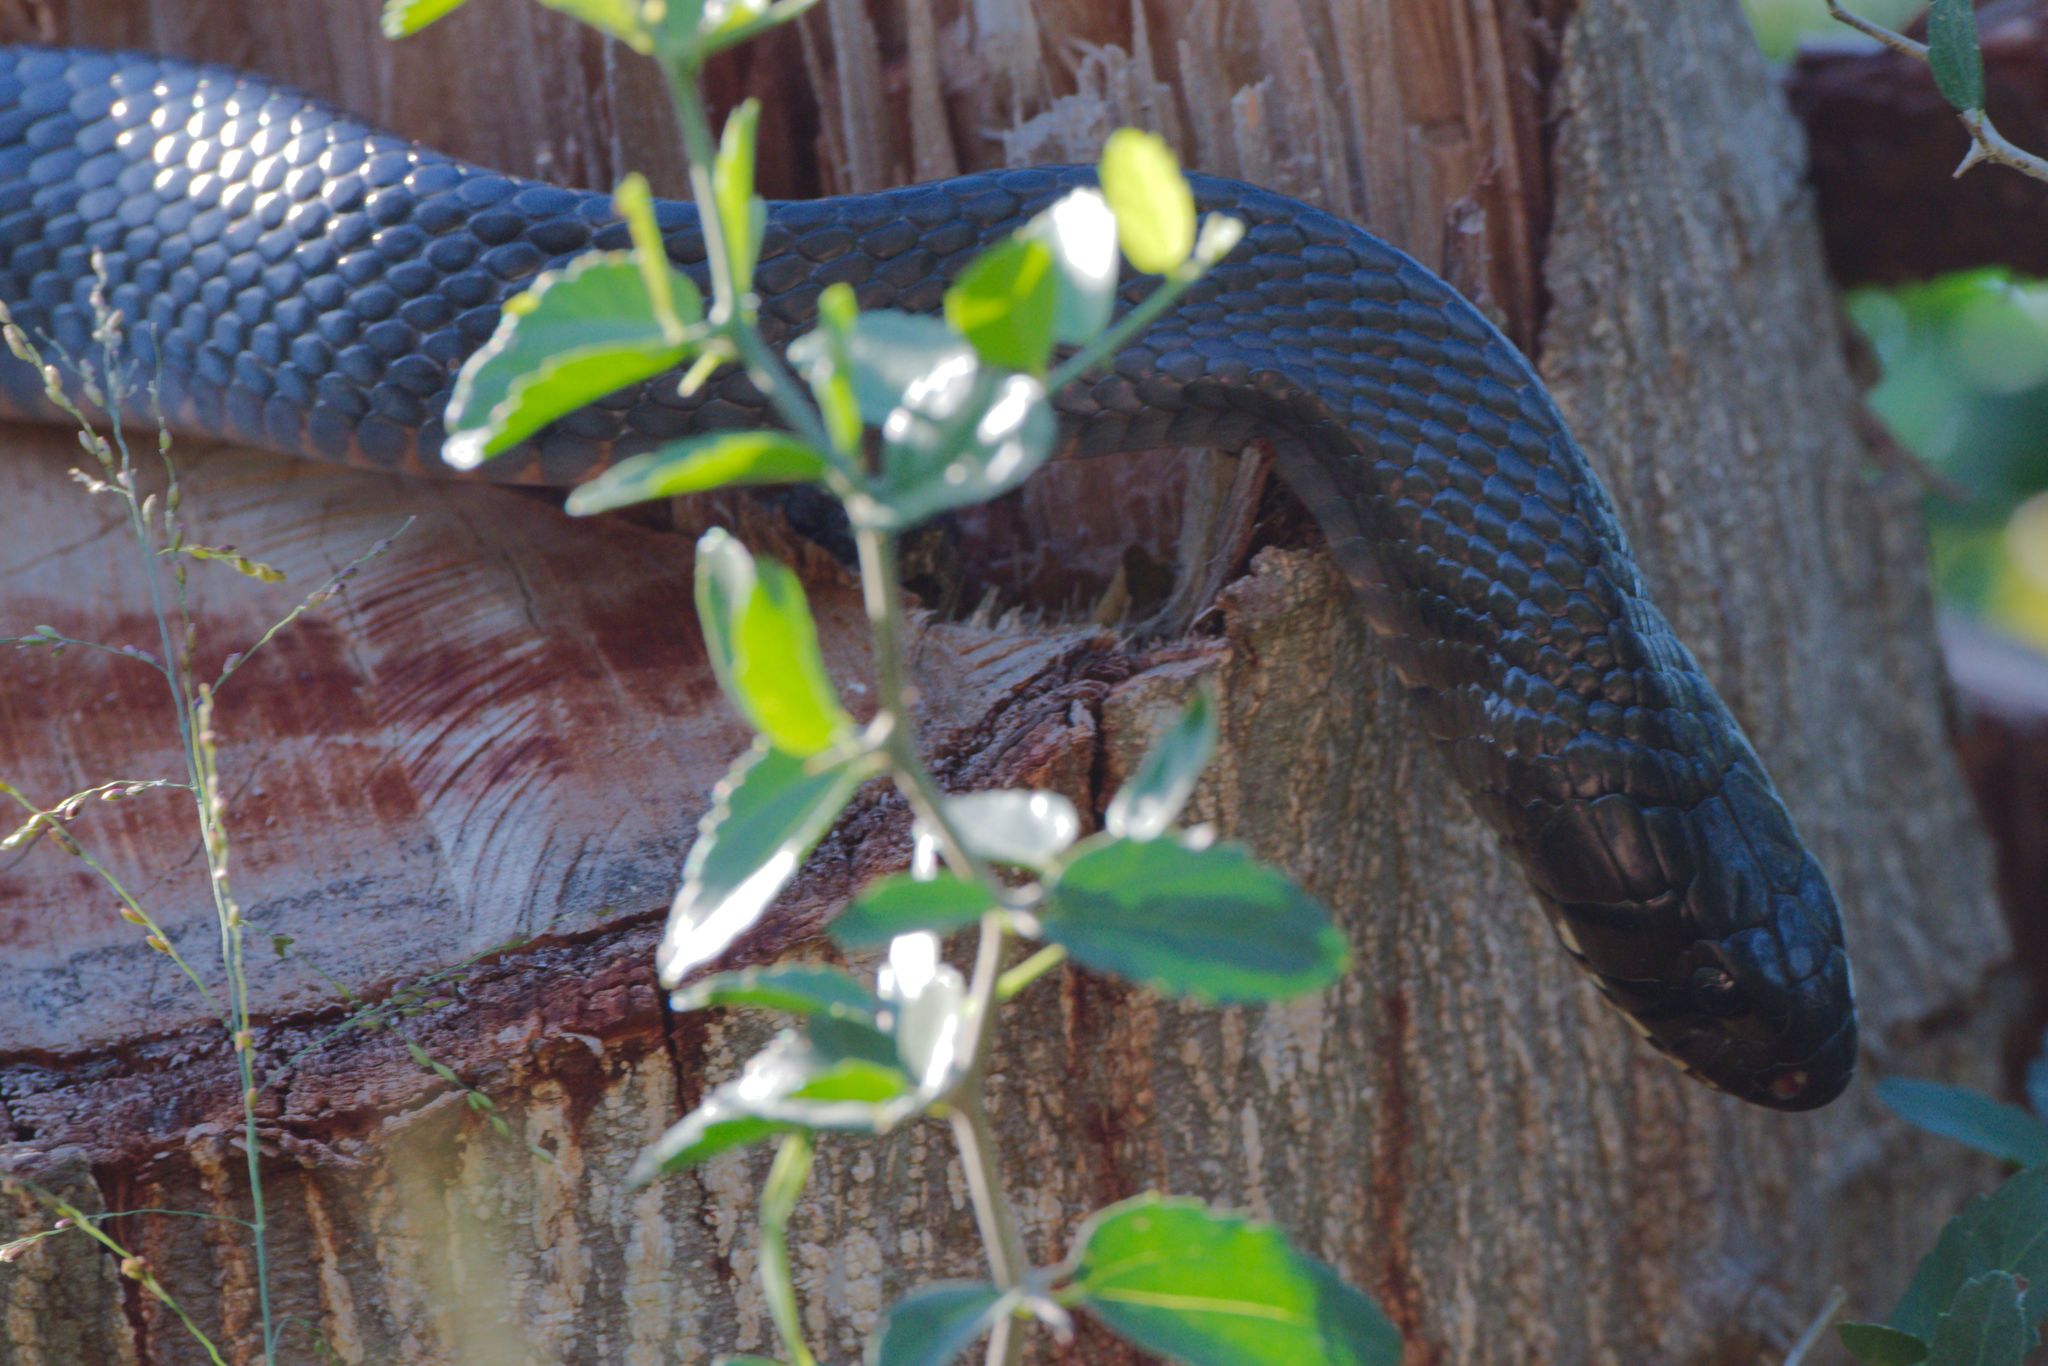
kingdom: Animalia
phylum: Chordata
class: Squamata
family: Colubridae
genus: Drymarchon
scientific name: Drymarchon melanurus
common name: Central american indigo snake
